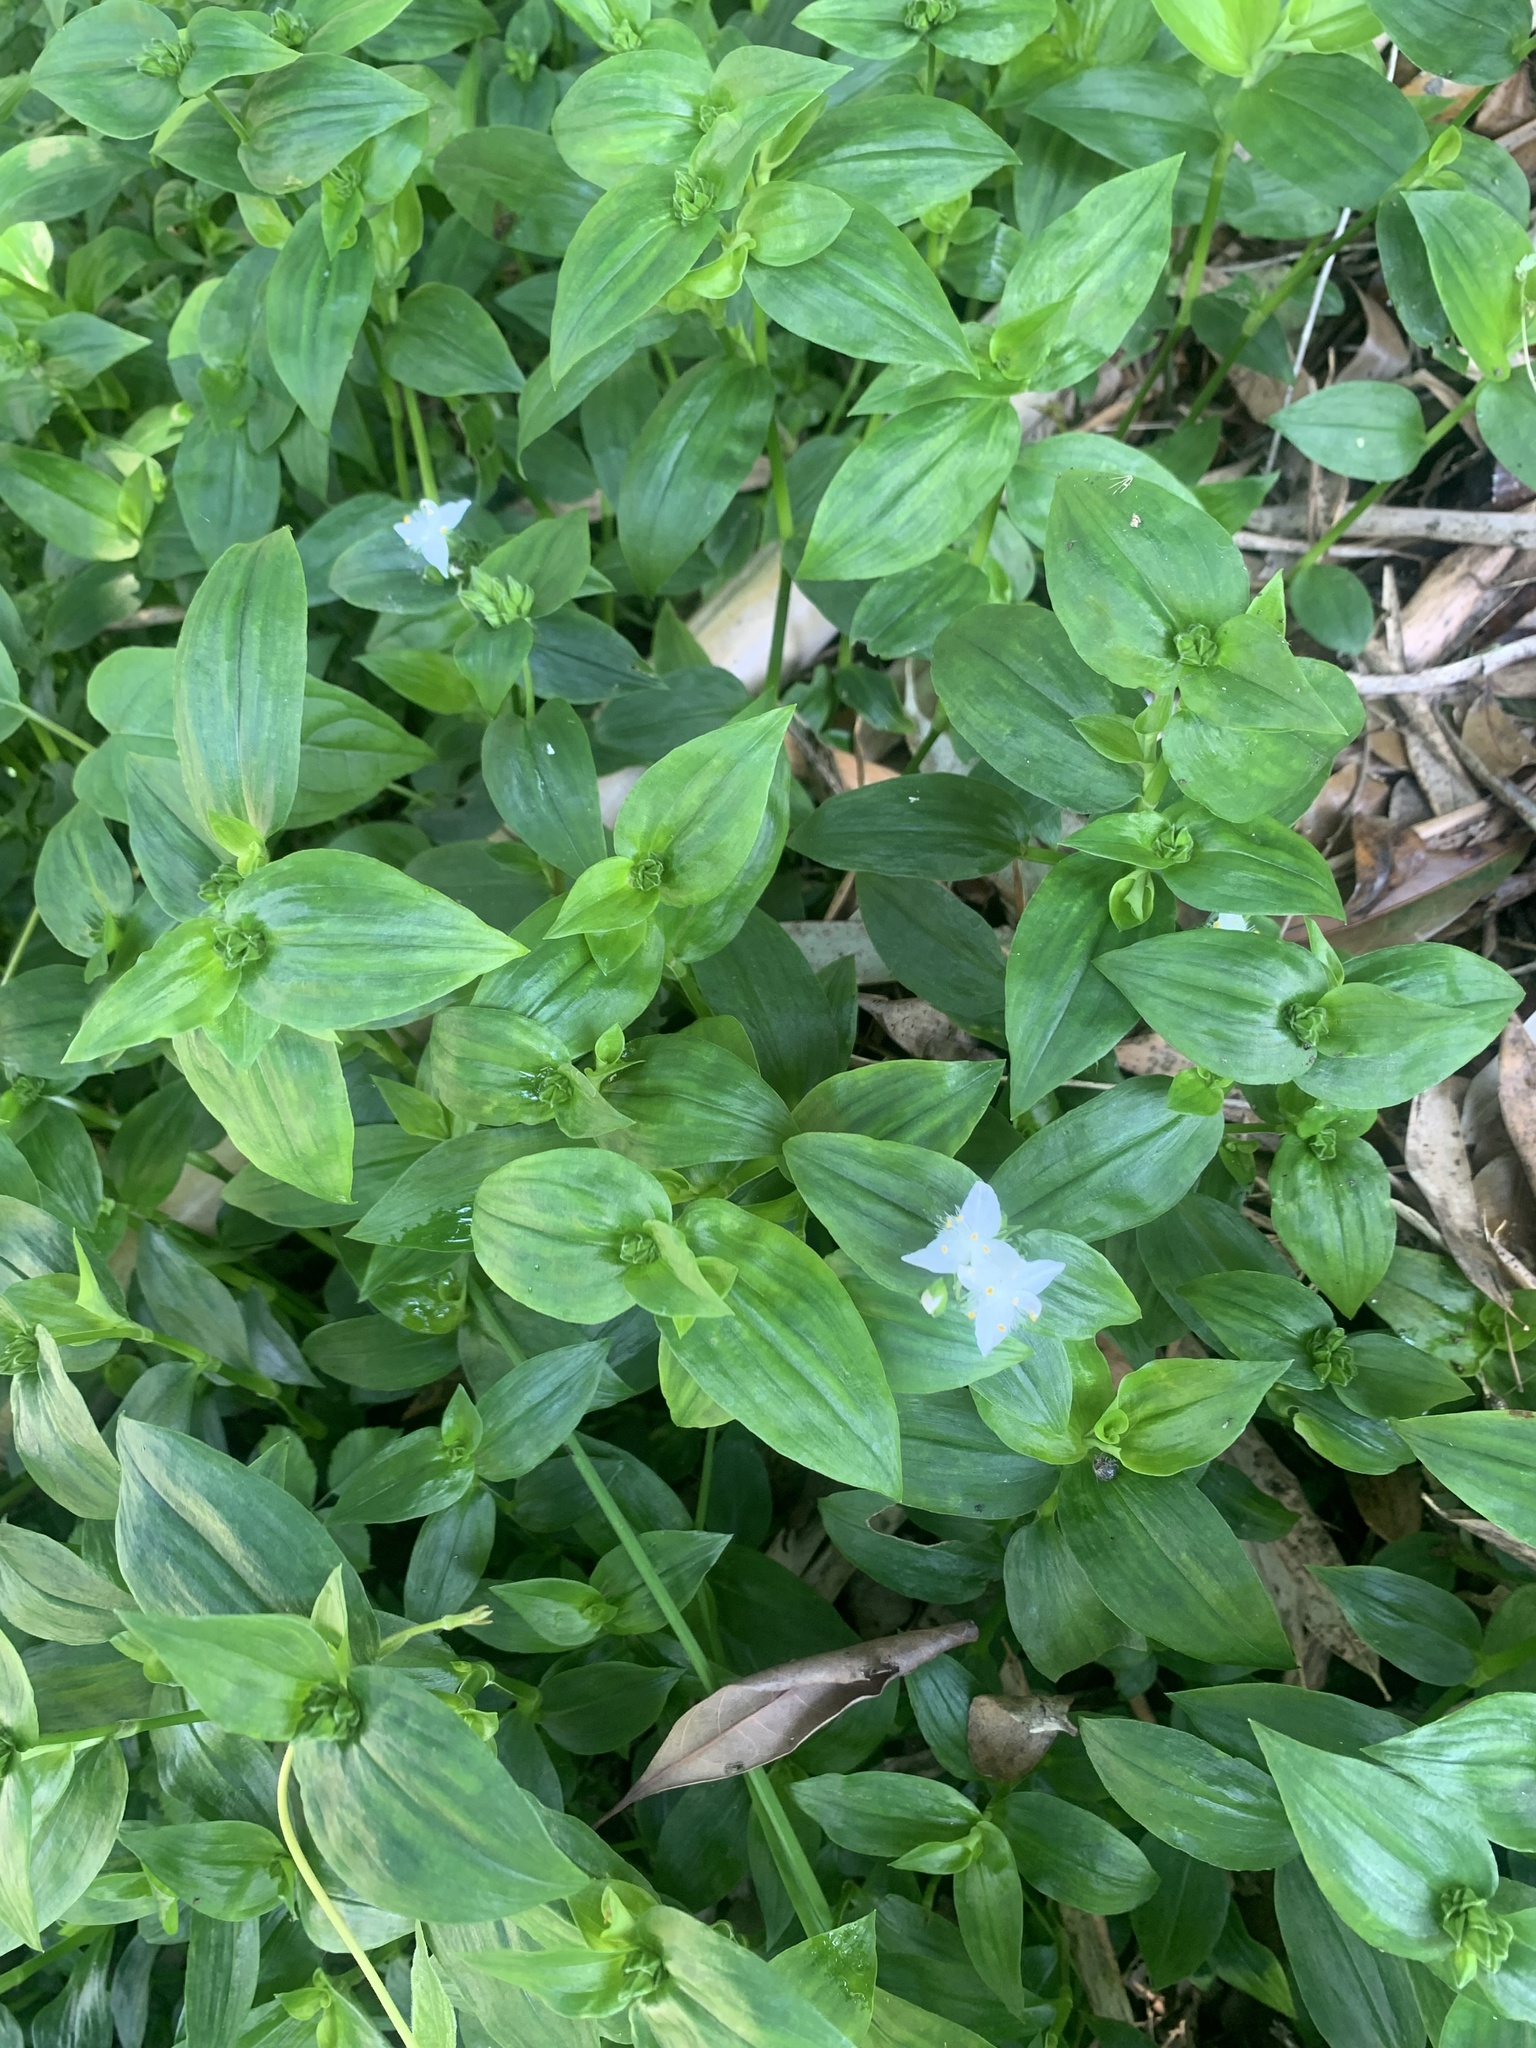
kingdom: Plantae
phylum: Tracheophyta
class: Liliopsida
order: Commelinales
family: Commelinaceae
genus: Tradescantia
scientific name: Tradescantia fluminensis
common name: Wandering-jew
